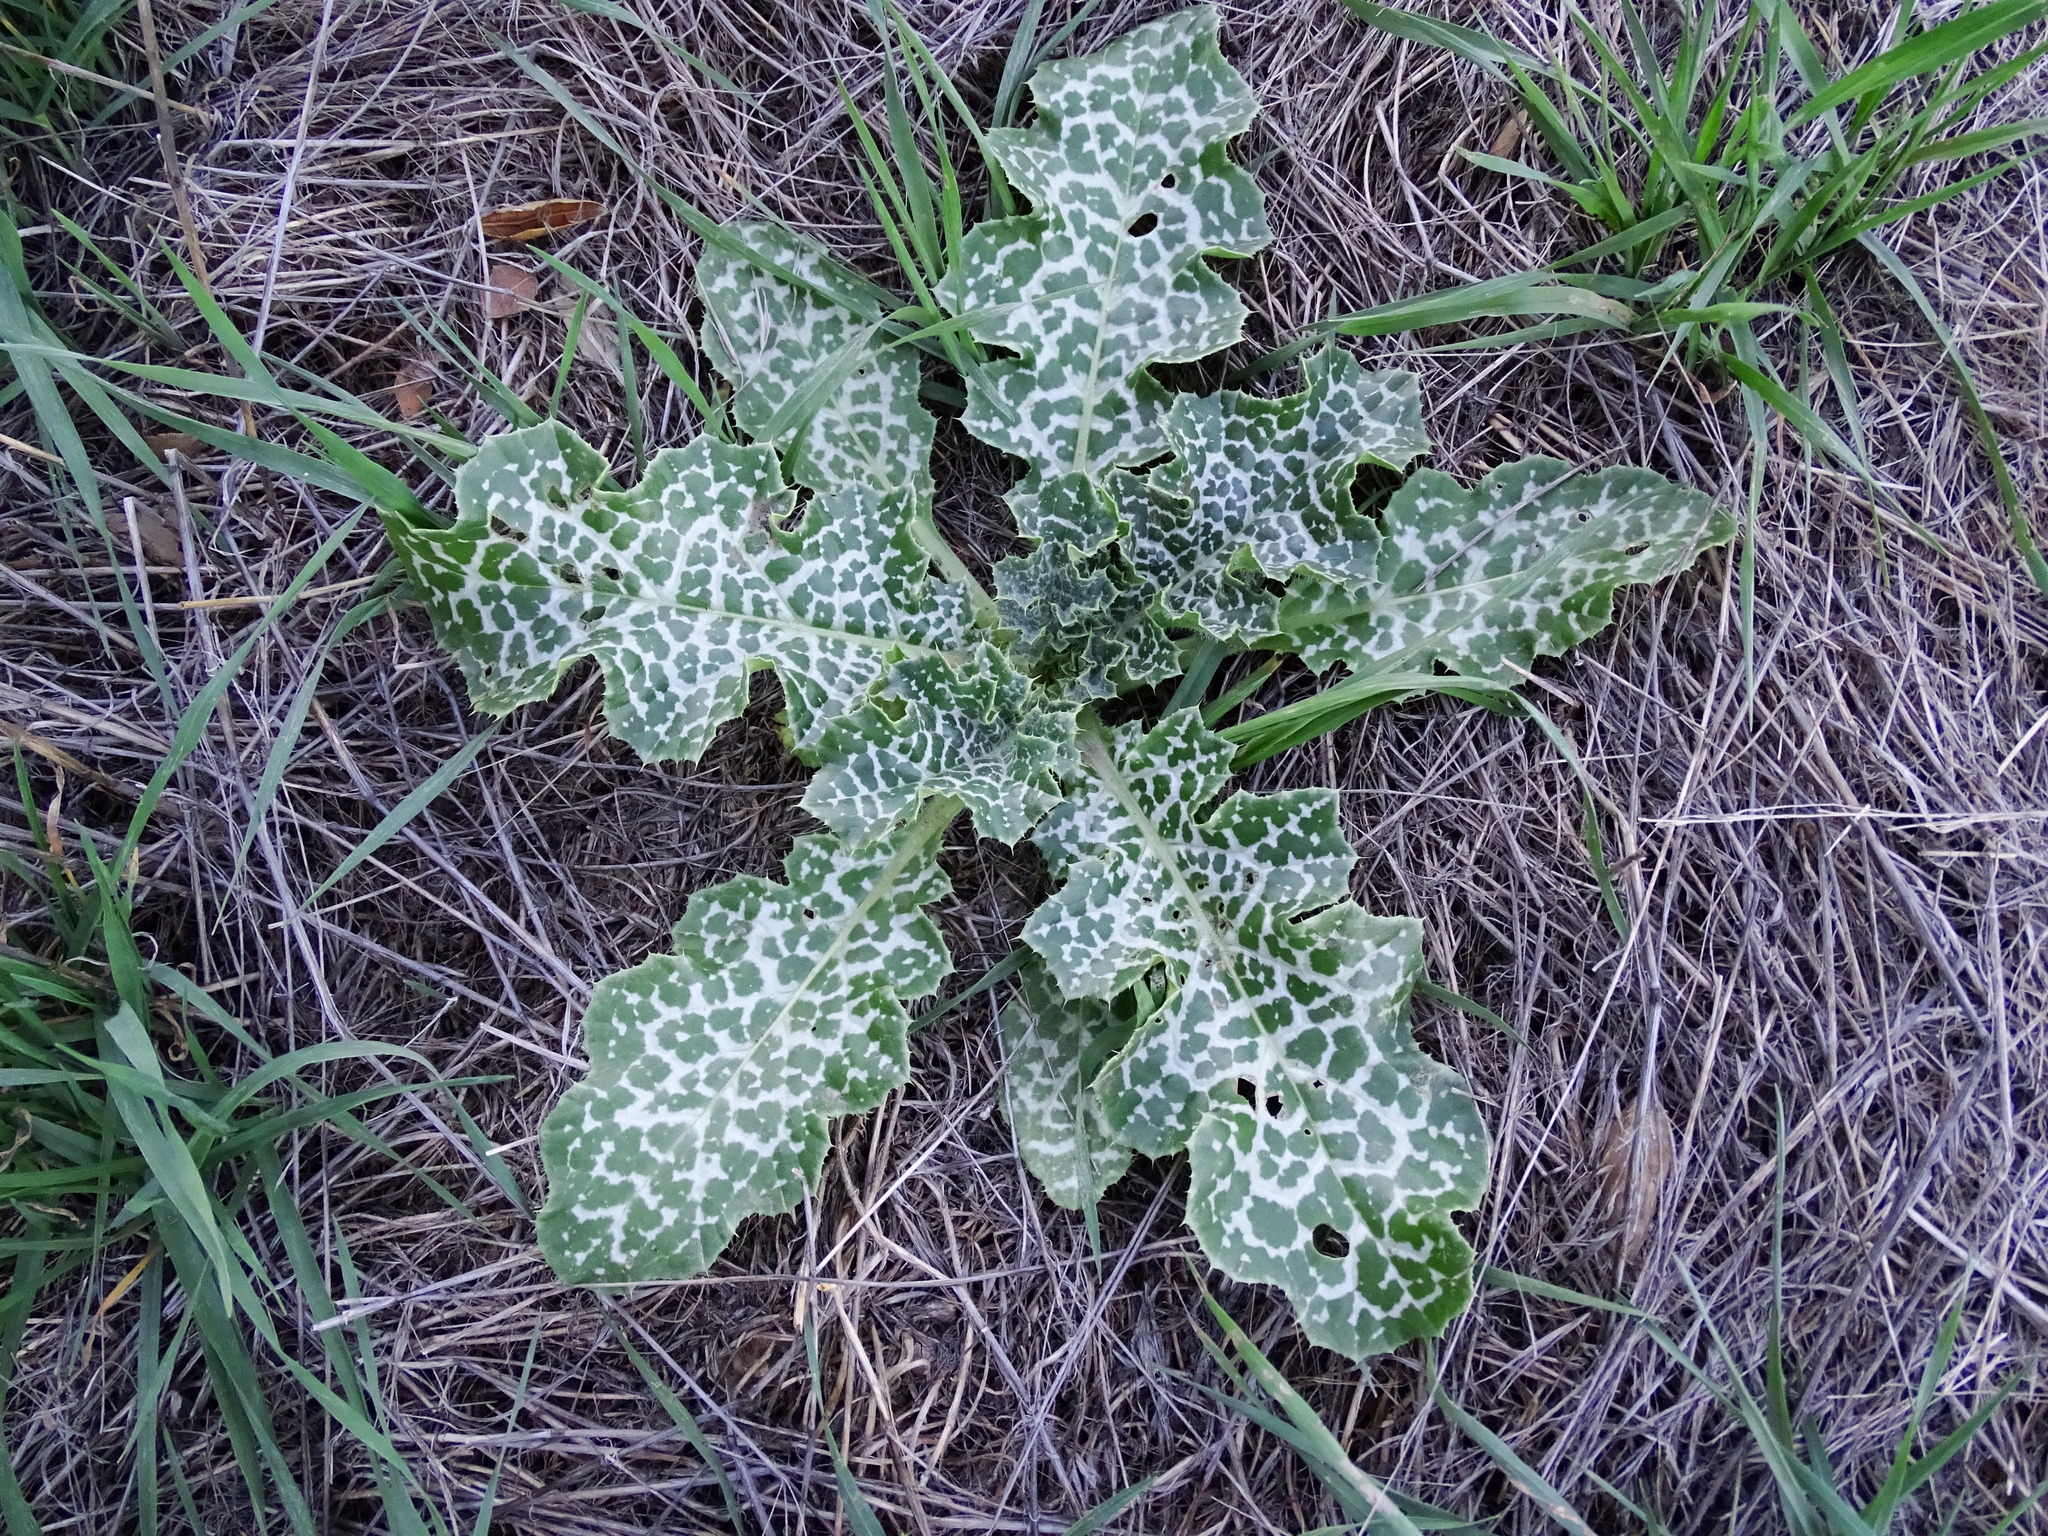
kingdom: Plantae
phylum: Tracheophyta
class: Magnoliopsida
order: Asterales
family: Asteraceae
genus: Silybum
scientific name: Silybum marianum
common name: Milk thistle
